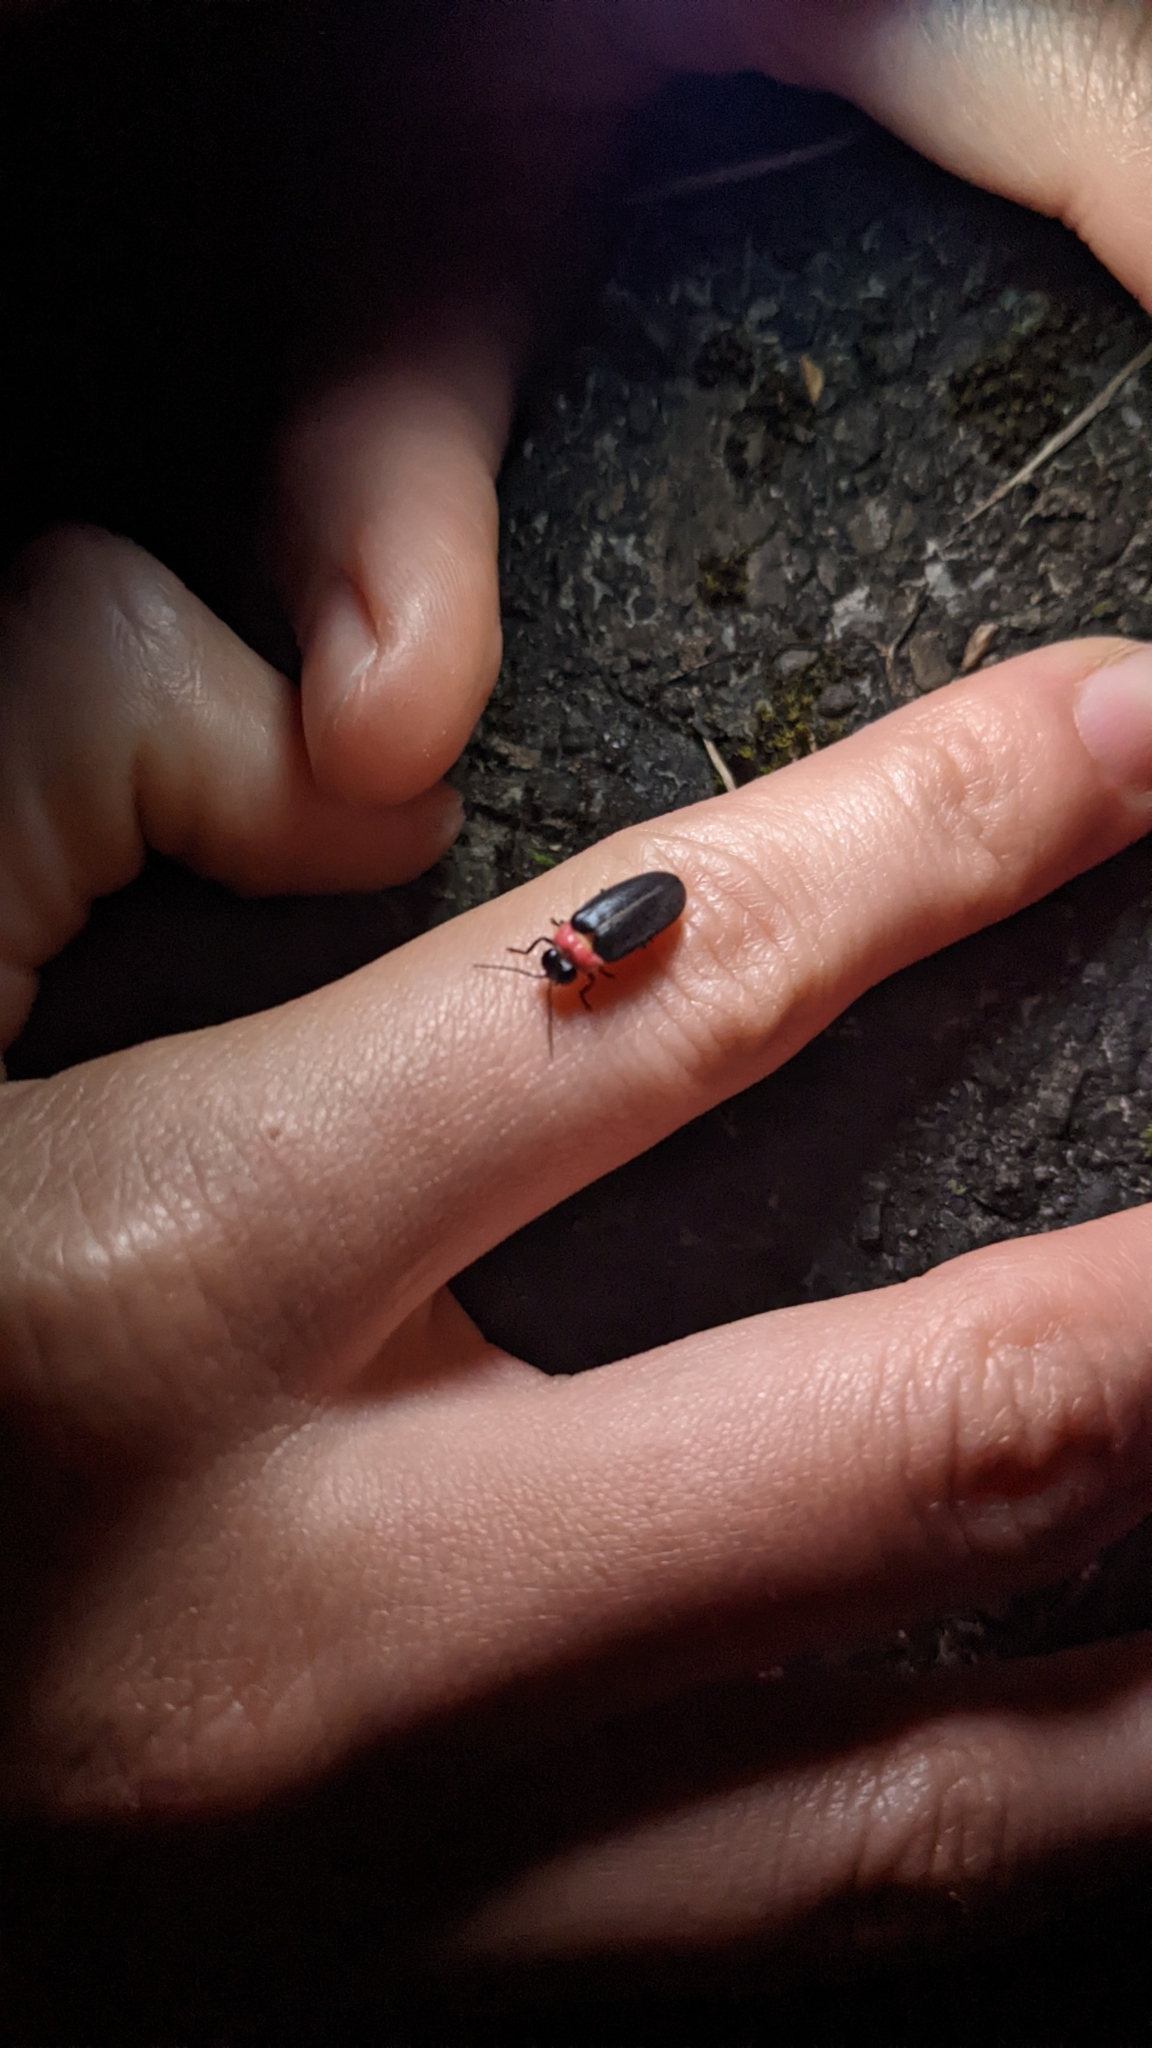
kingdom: Animalia
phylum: Arthropoda
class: Insecta
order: Coleoptera
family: Lampyridae
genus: Luciola
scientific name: Luciola kagiana
